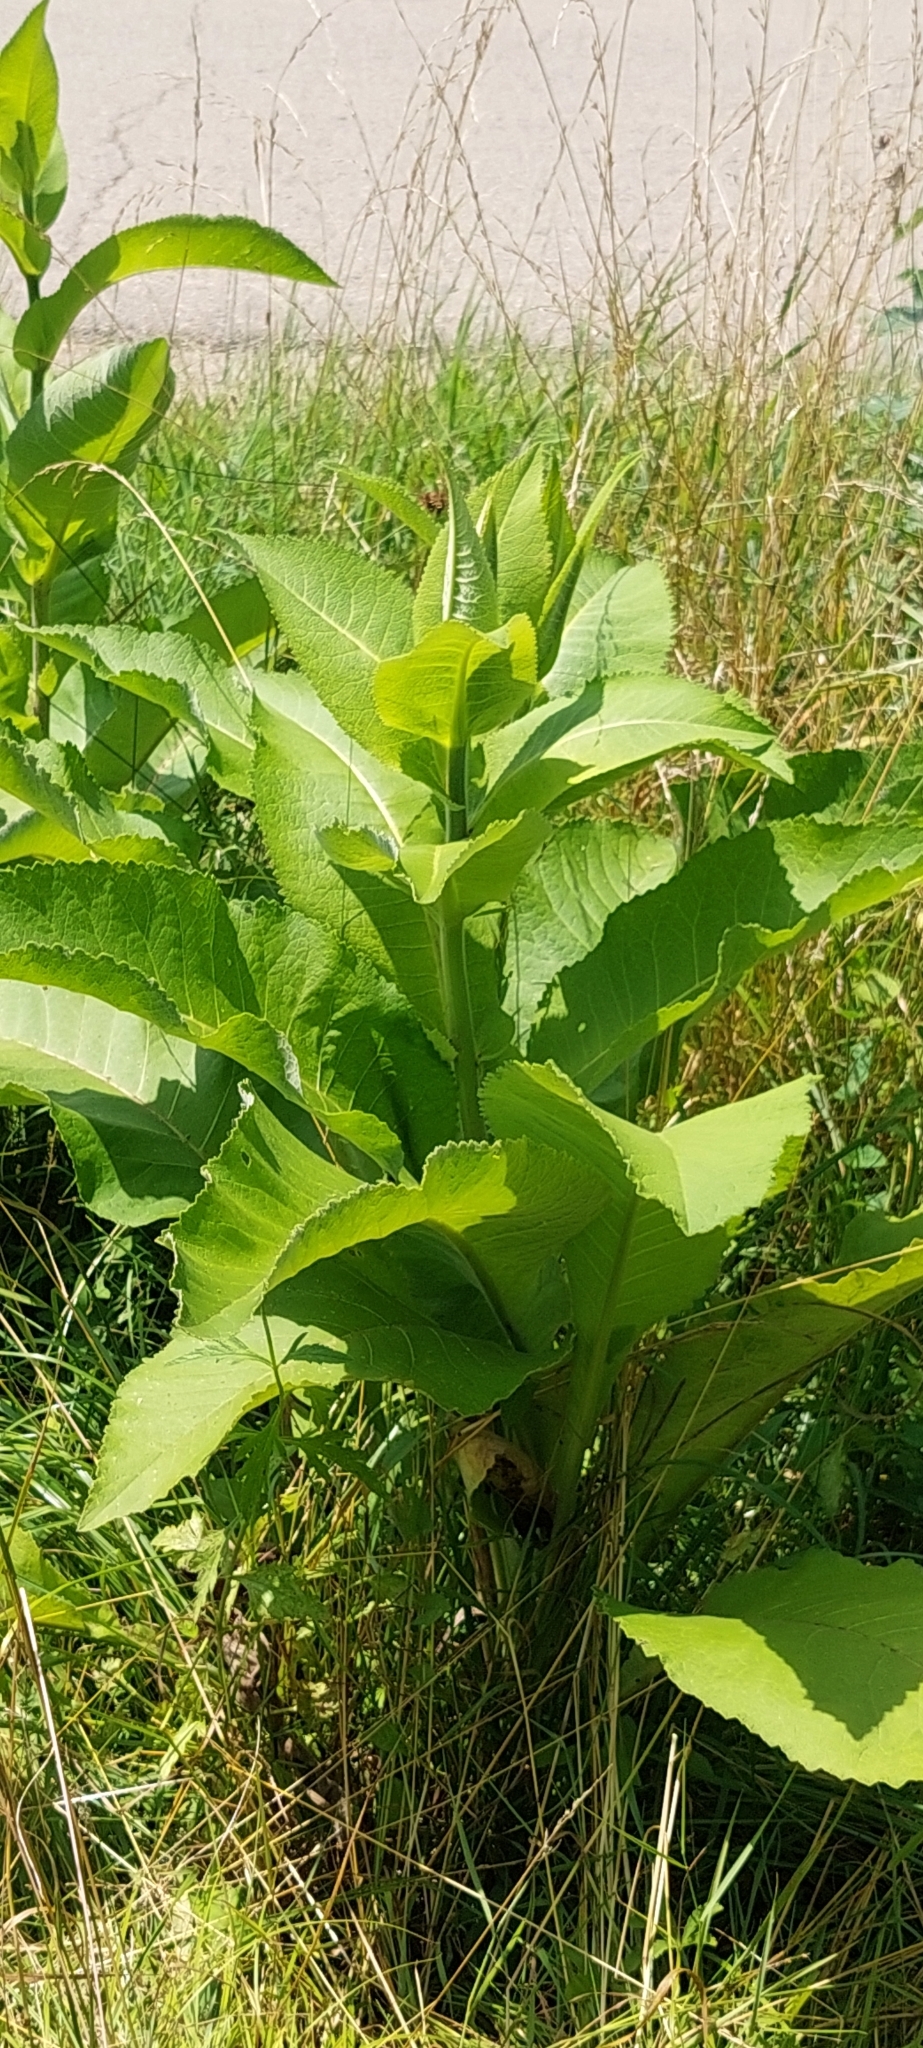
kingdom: Plantae
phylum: Tracheophyta
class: Magnoliopsida
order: Asterales
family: Asteraceae
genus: Inula
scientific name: Inula helenium
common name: Elecampane
